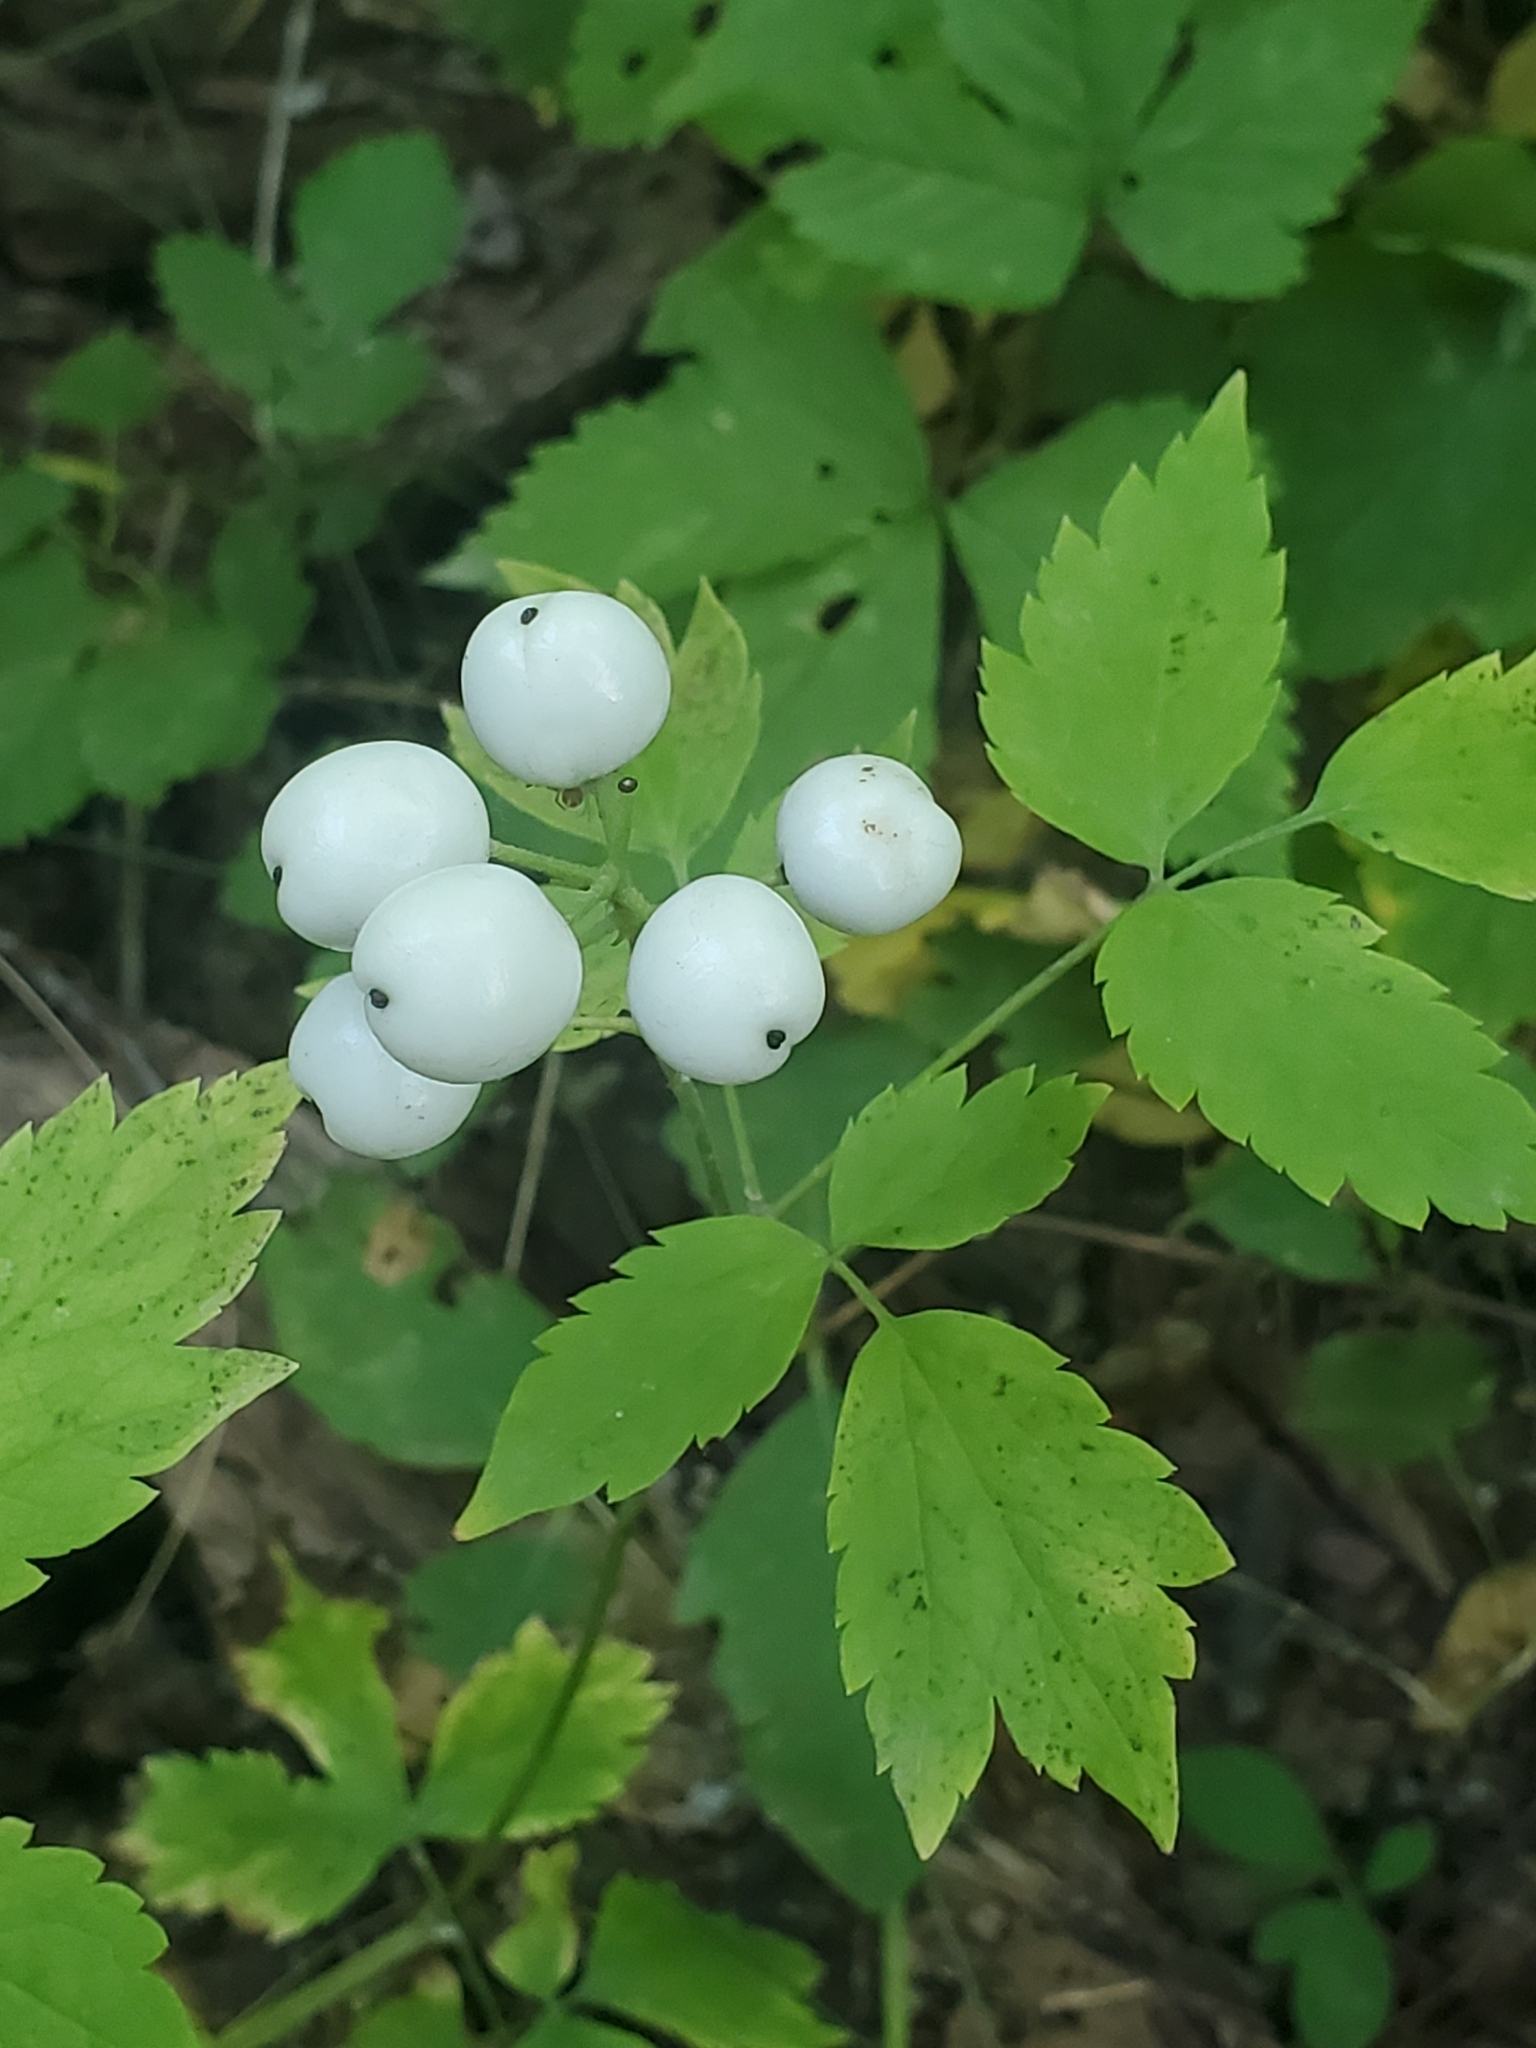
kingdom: Plantae
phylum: Tracheophyta
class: Magnoliopsida
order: Ranunculales
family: Ranunculaceae
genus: Actaea
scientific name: Actaea rubra
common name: Red baneberry
